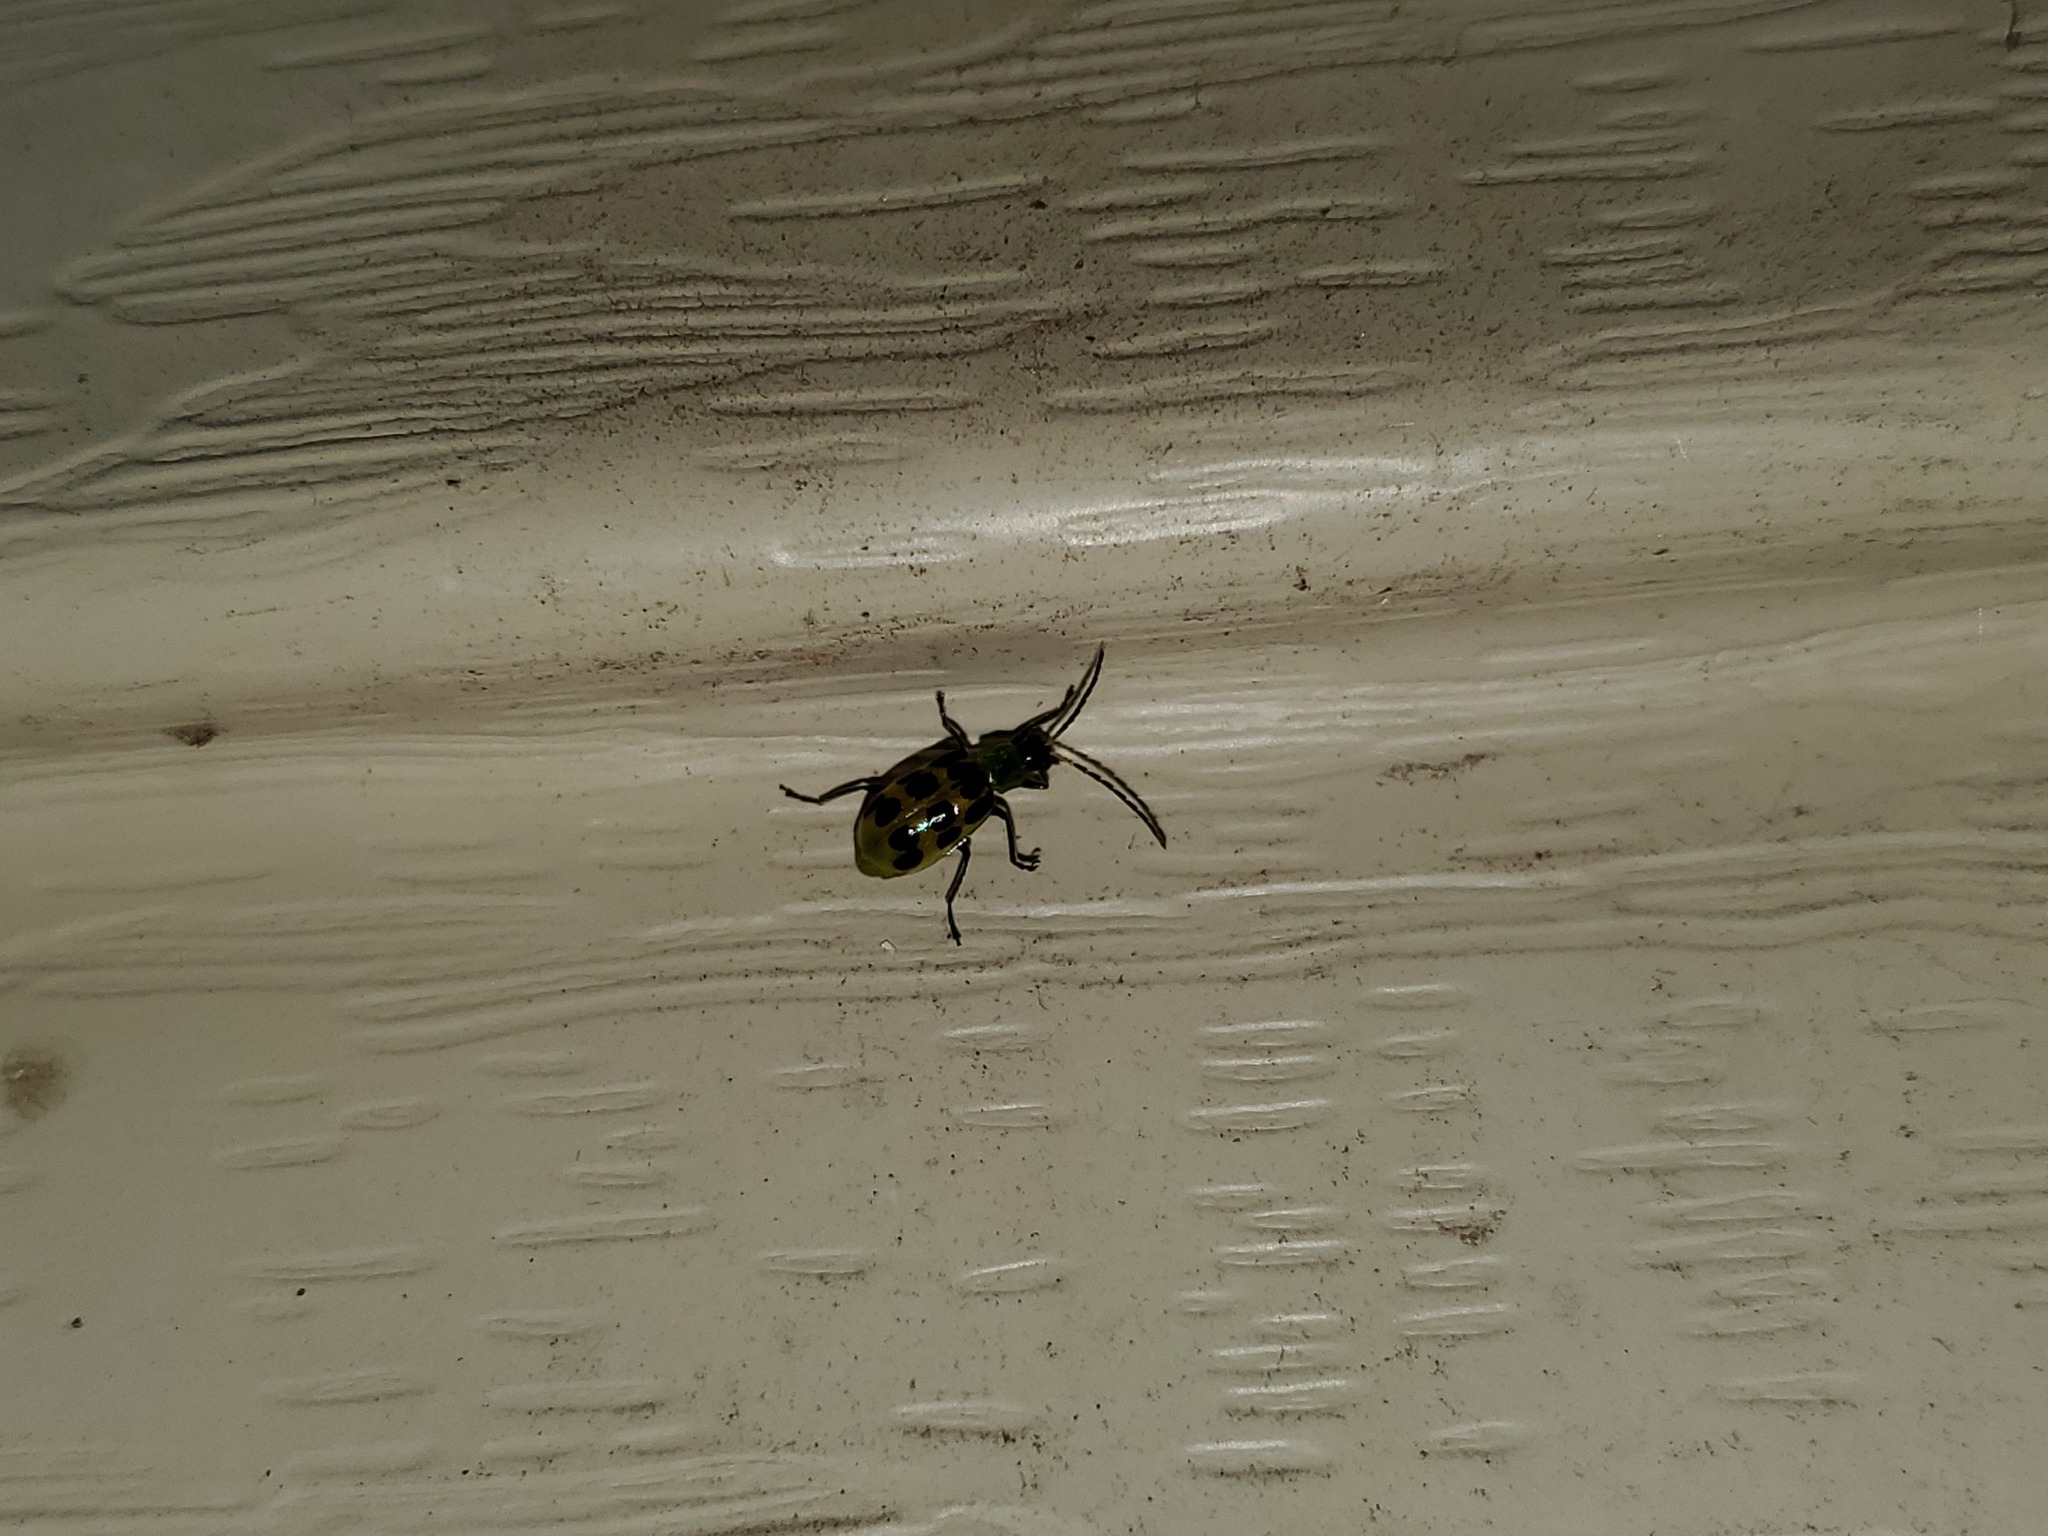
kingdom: Animalia
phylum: Arthropoda
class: Insecta
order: Coleoptera
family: Chrysomelidae
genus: Diabrotica
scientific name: Diabrotica undecimpunctata
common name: Spotted cucumber beetle
